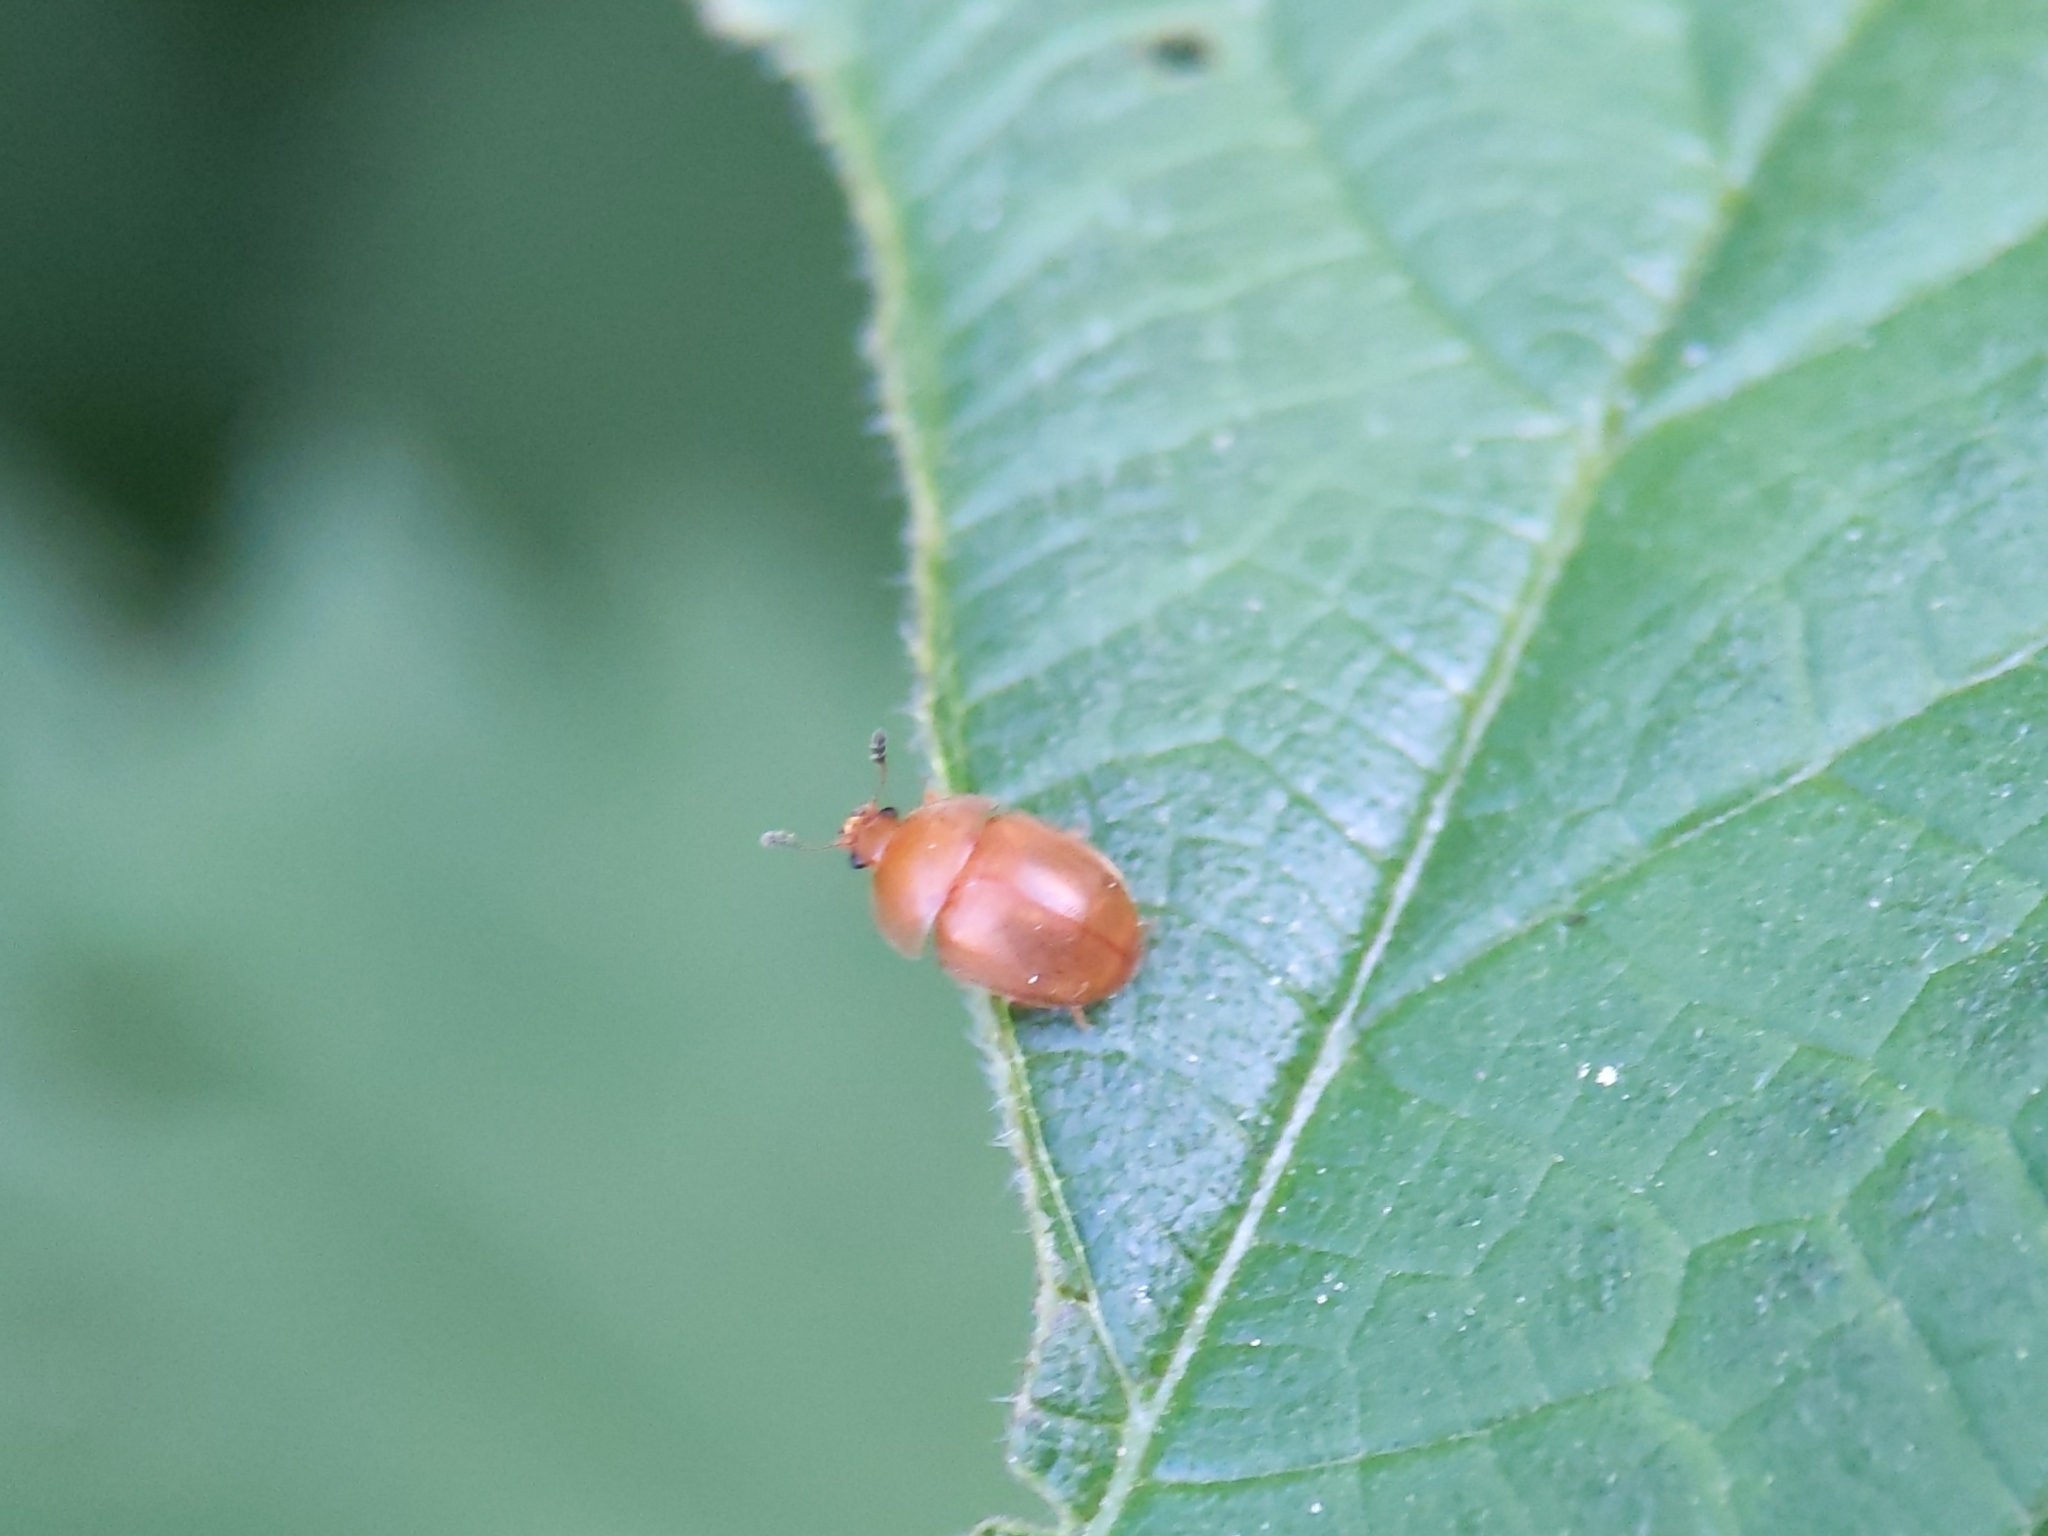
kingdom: Animalia
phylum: Arthropoda
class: Insecta
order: Coleoptera
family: Nitidulidae
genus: Cychramus
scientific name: Cychramus luteus
